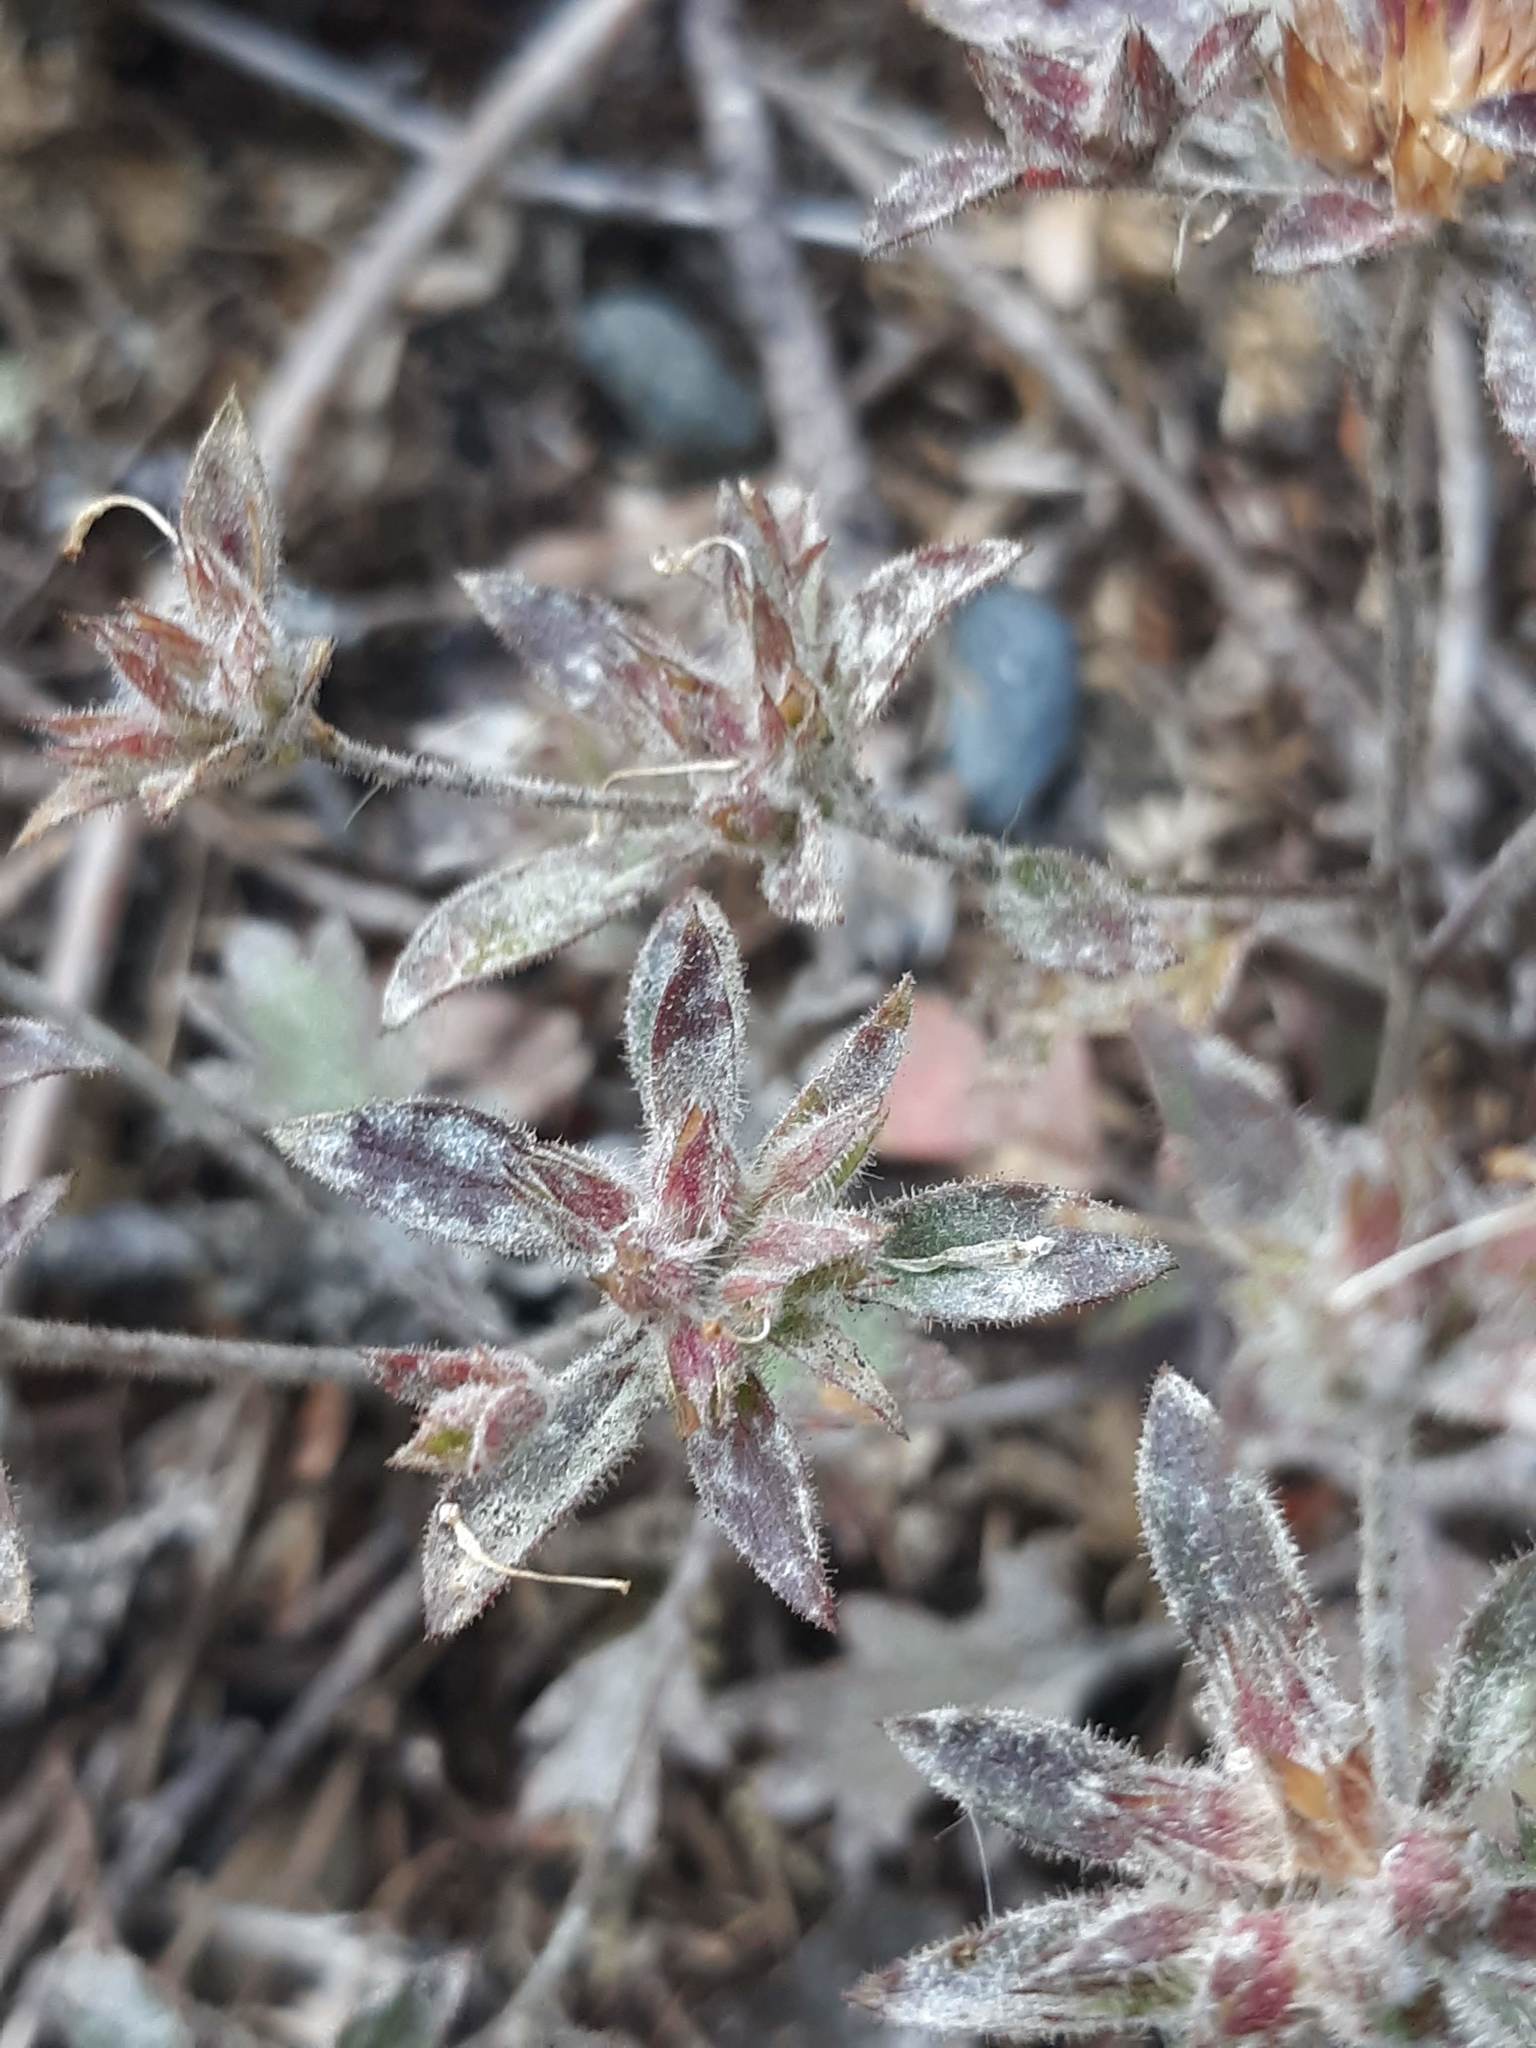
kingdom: Plantae
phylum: Tracheophyta
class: Magnoliopsida
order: Ericales
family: Polemoniaceae
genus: Collomia
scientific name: Collomia heterophylla
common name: Variable-leaved collomia
